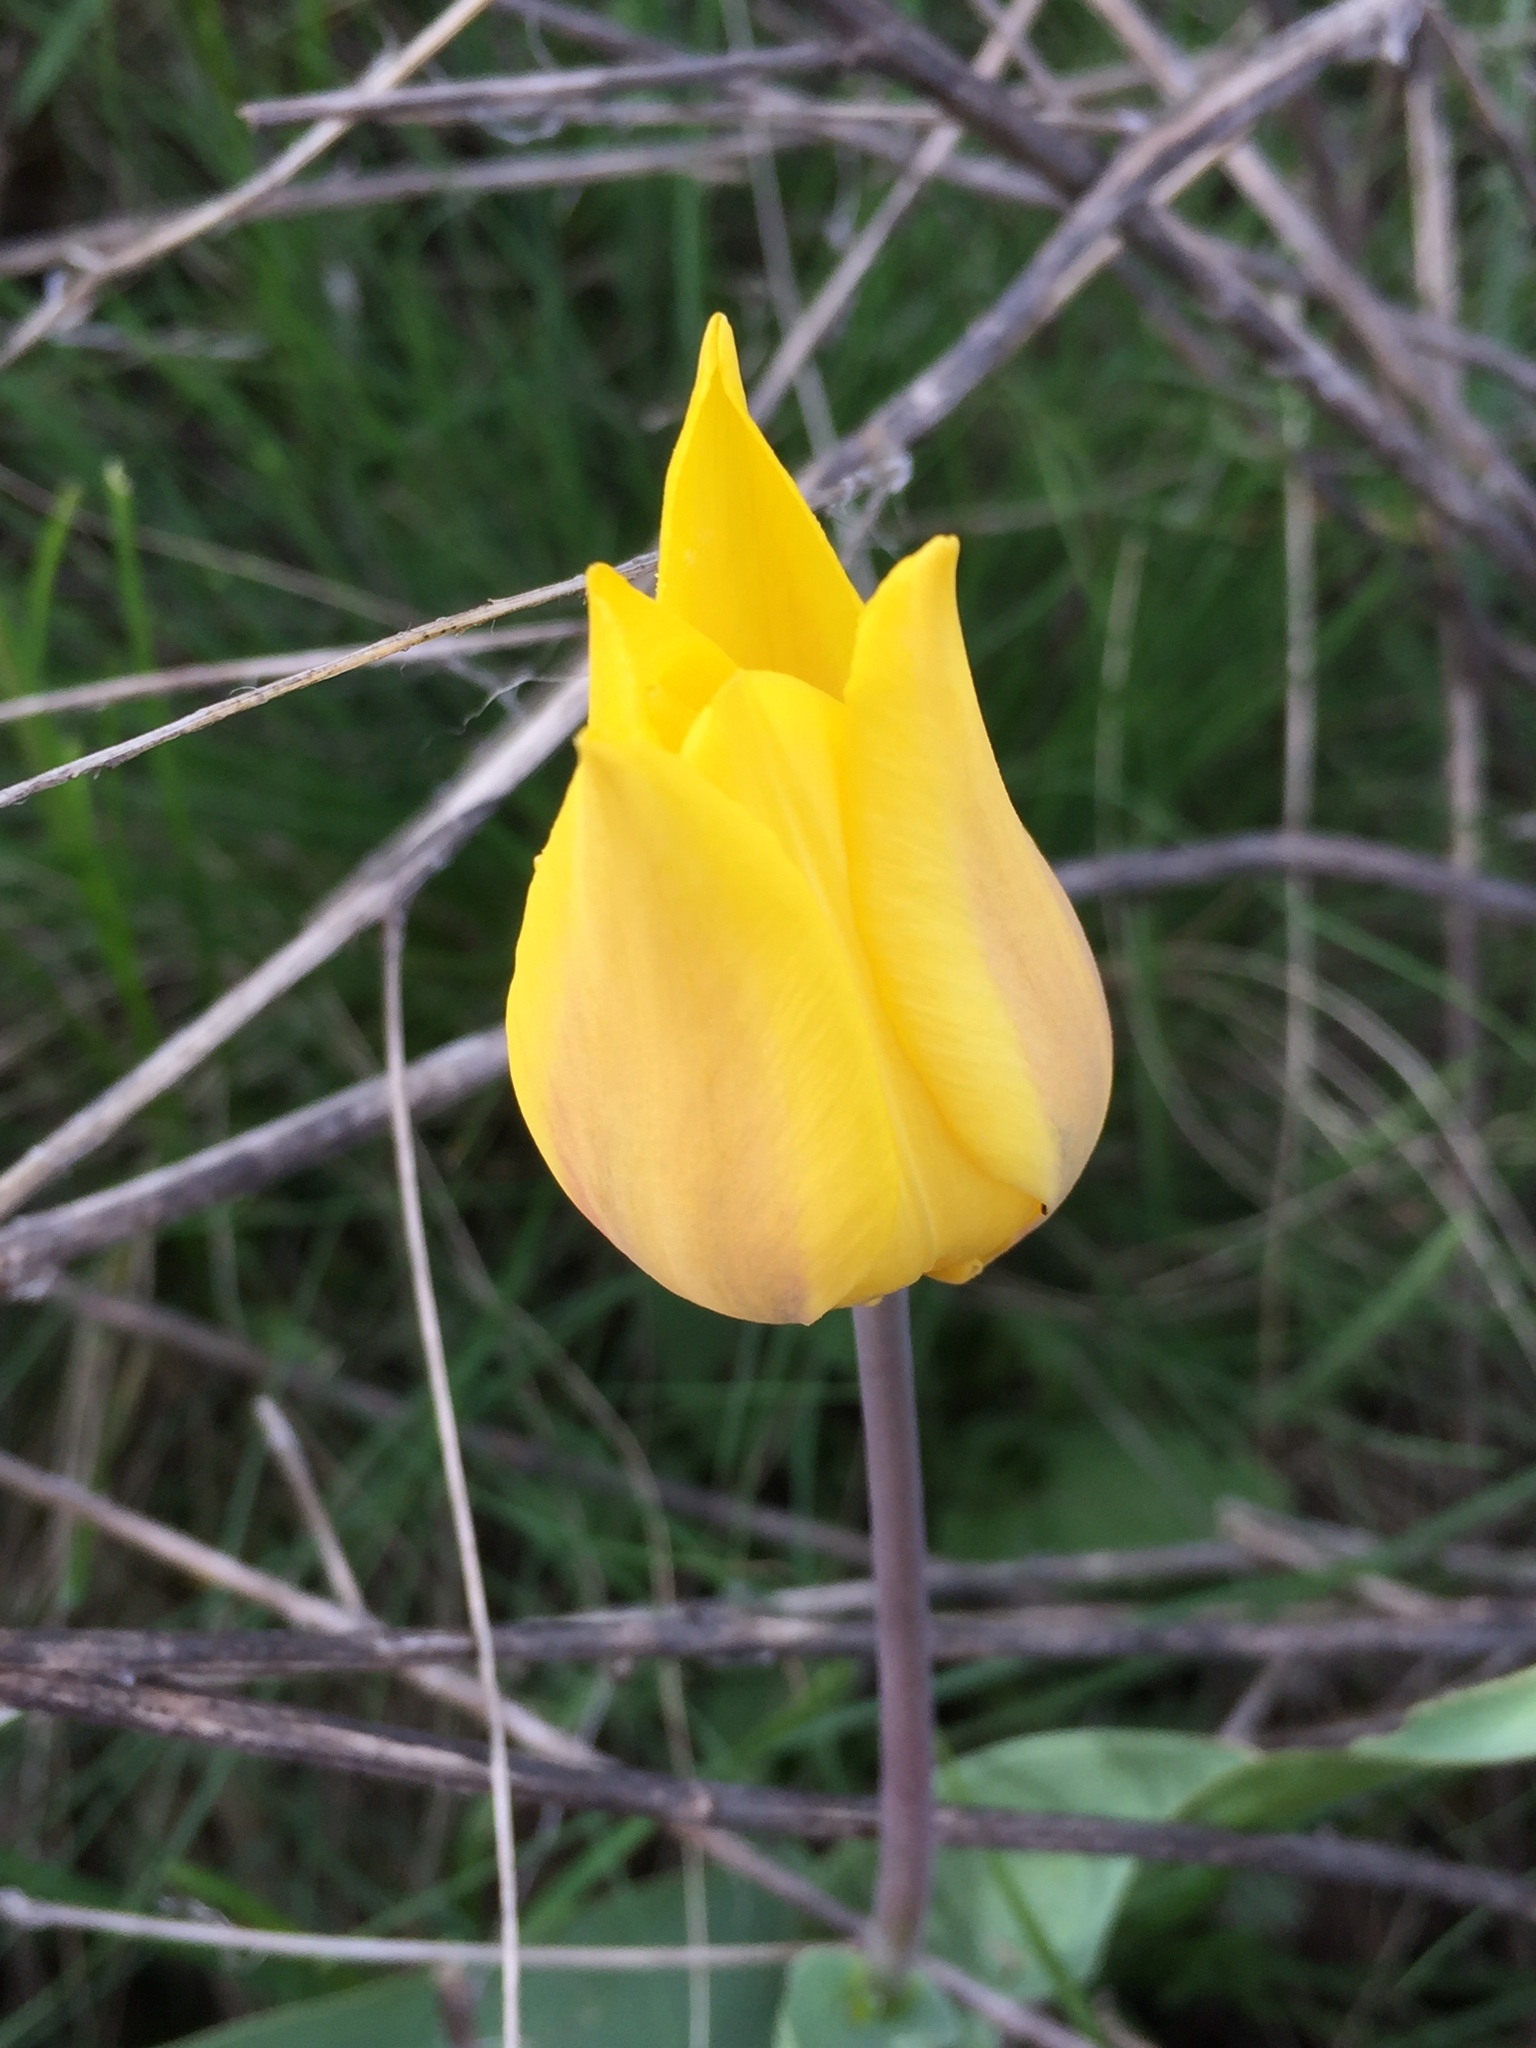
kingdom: Plantae
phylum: Tracheophyta
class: Liliopsida
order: Liliales
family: Liliaceae
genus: Tulipa
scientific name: Tulipa suaveolens
